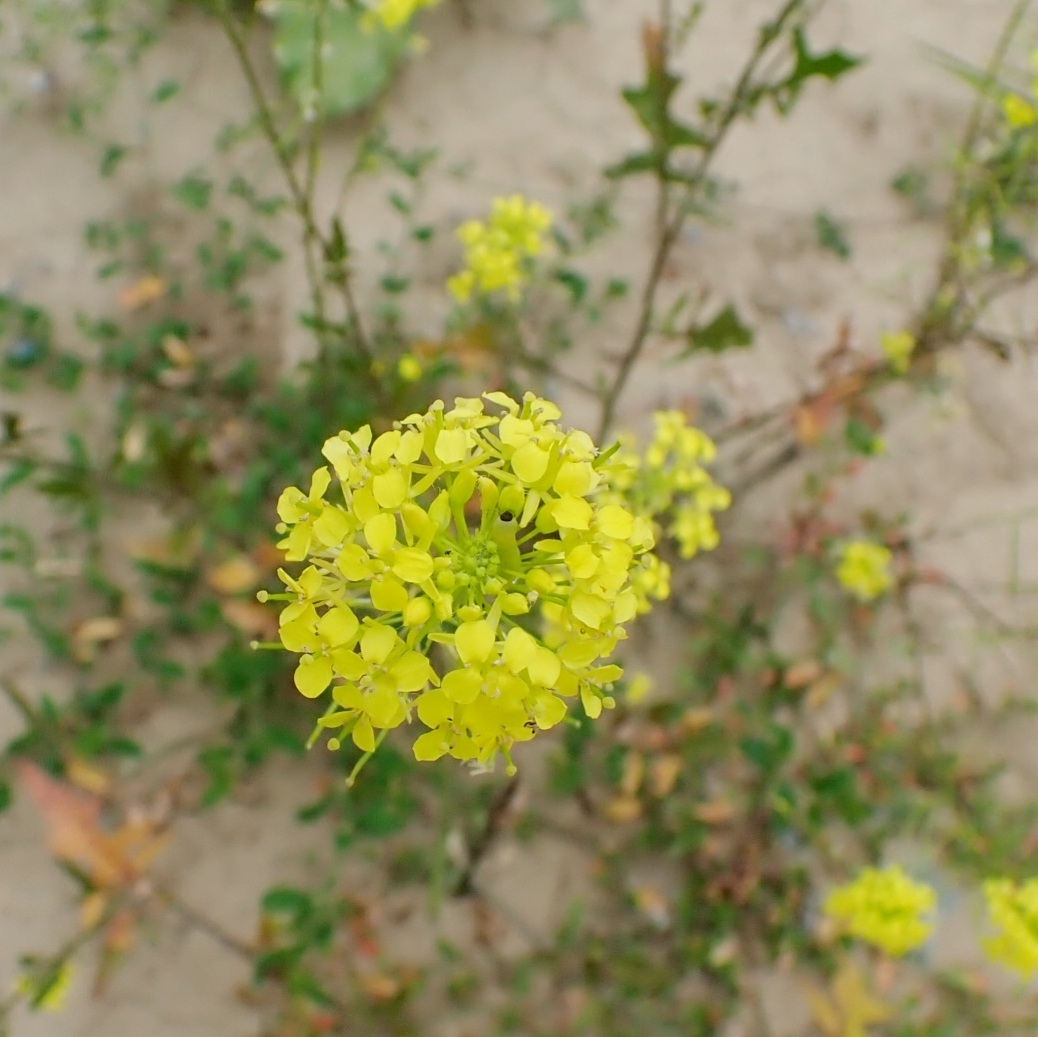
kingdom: Plantae
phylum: Tracheophyta
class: Magnoliopsida
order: Brassicales
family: Brassicaceae
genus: Sisymbrium
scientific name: Sisymbrium loeselii
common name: False london-rocket
